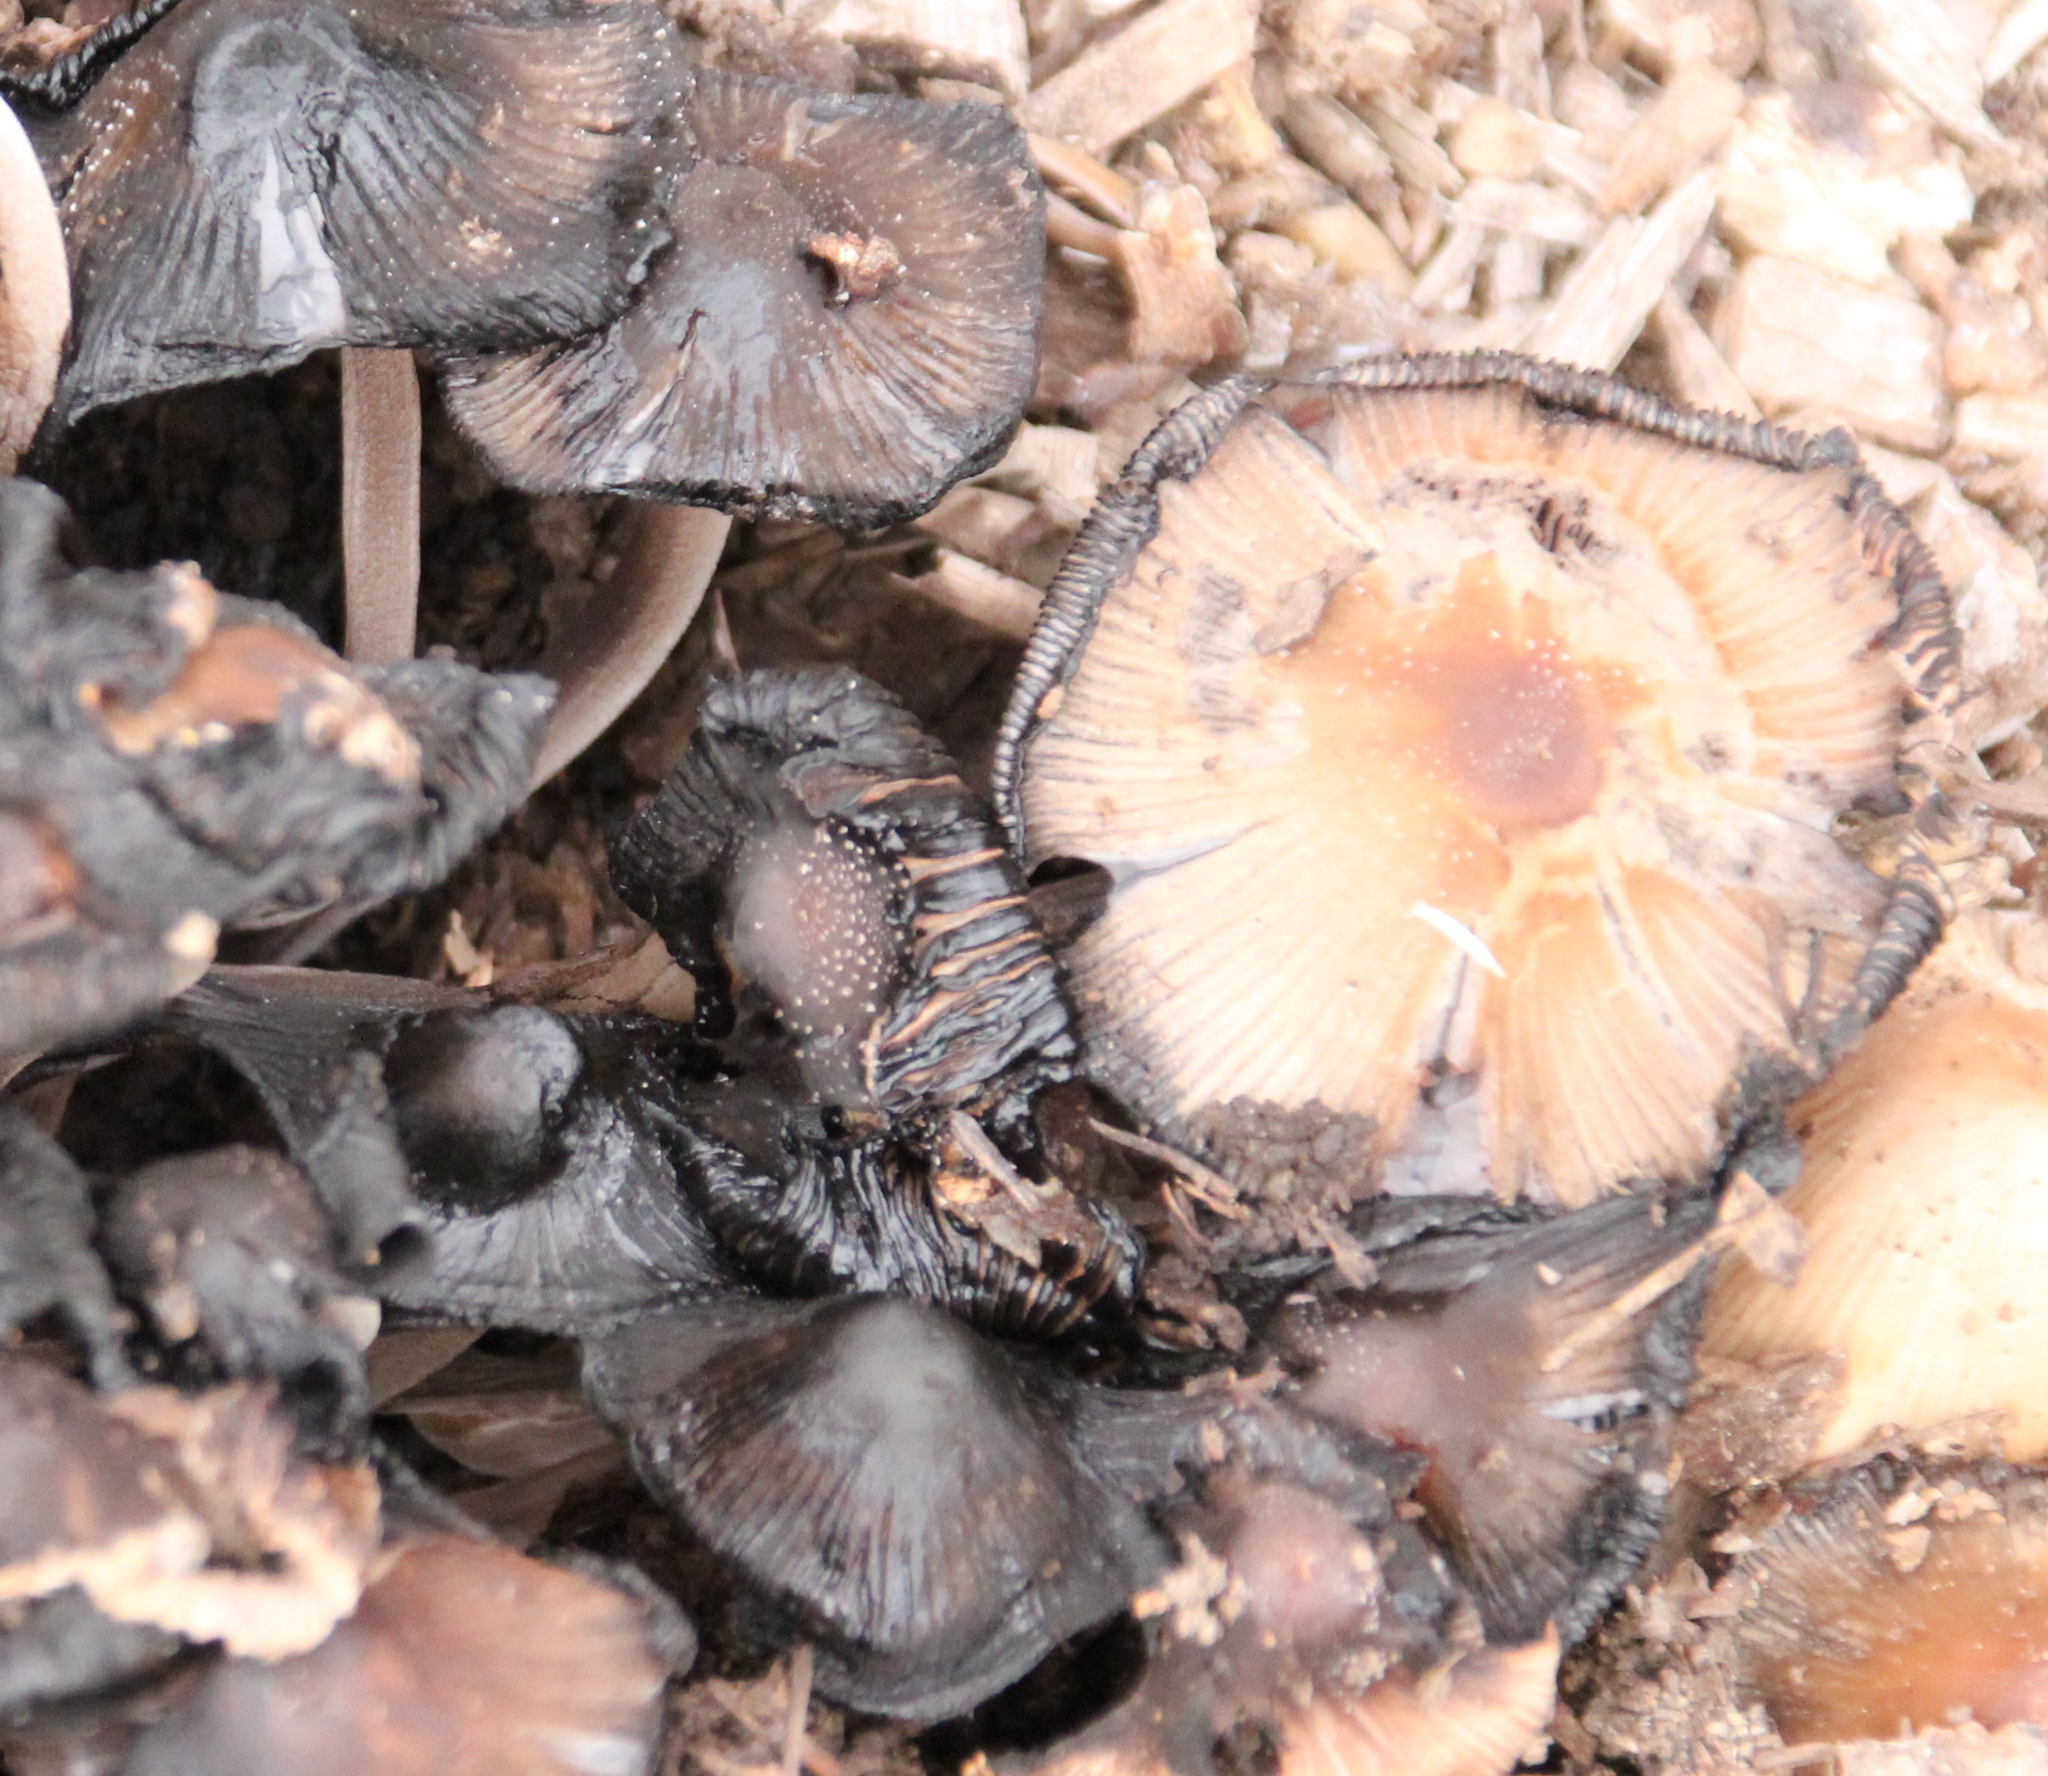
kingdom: Fungi
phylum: Basidiomycota
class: Agaricomycetes
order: Agaricales
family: Psathyrellaceae
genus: Coprinellus
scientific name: Coprinellus micaceus
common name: Glistening ink-cap
